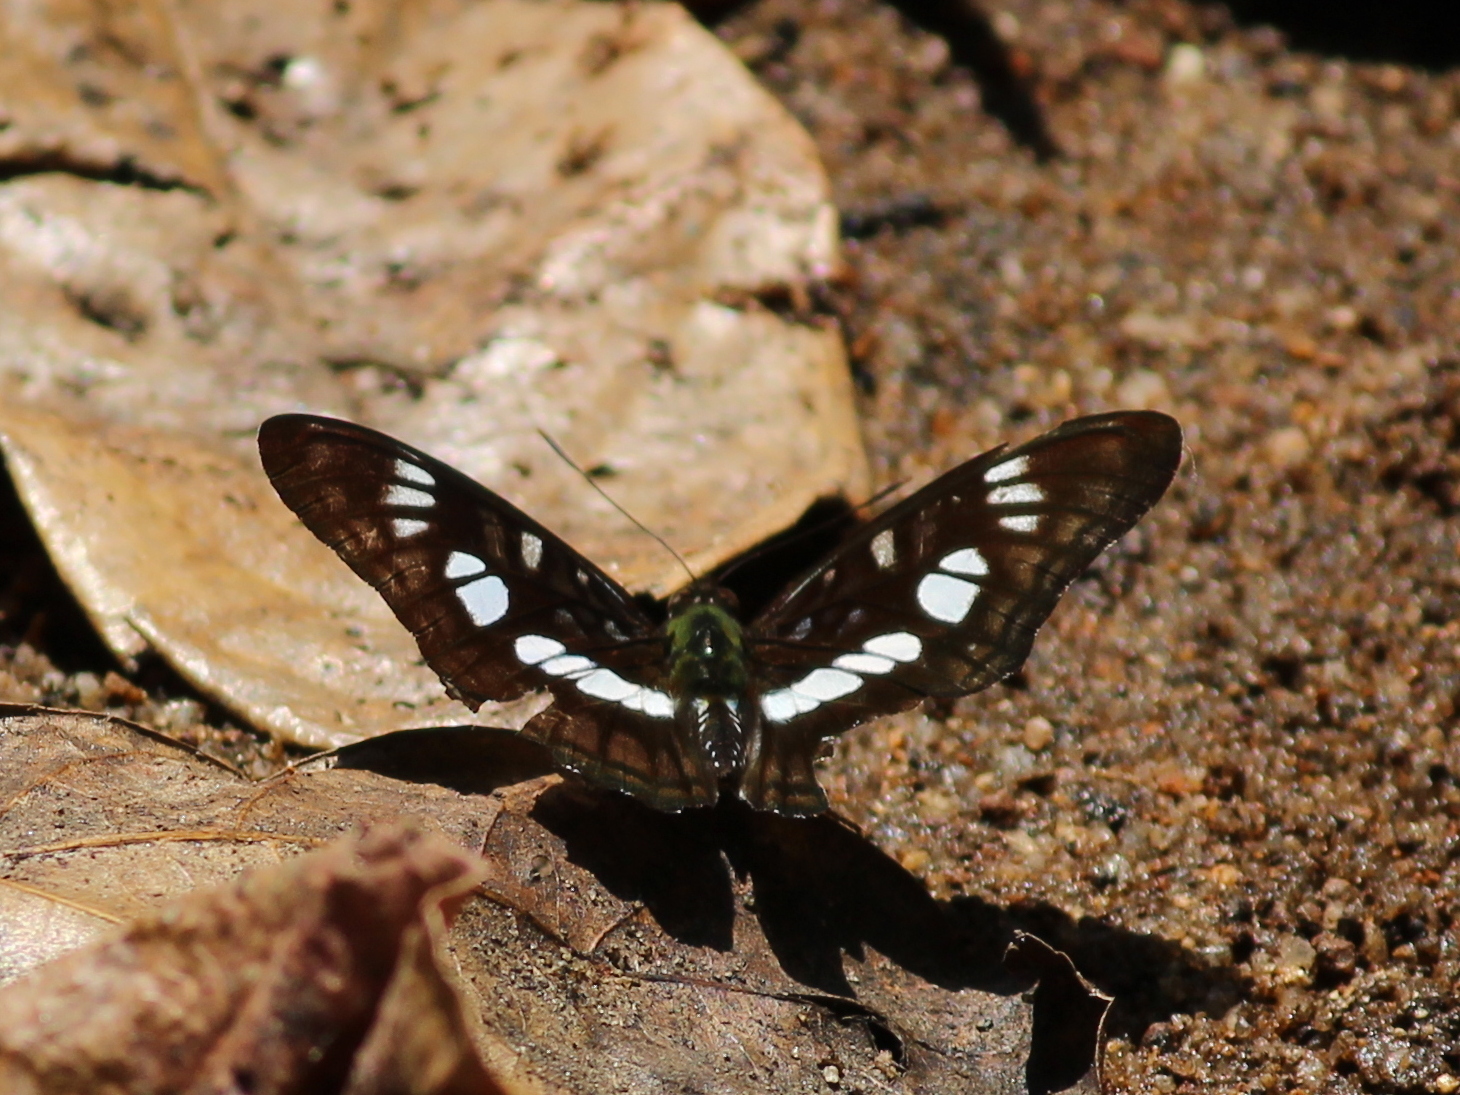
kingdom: Animalia
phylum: Arthropoda
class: Insecta
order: Lepidoptera
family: Nymphalidae
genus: Parathyma
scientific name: Parathyma ranga
